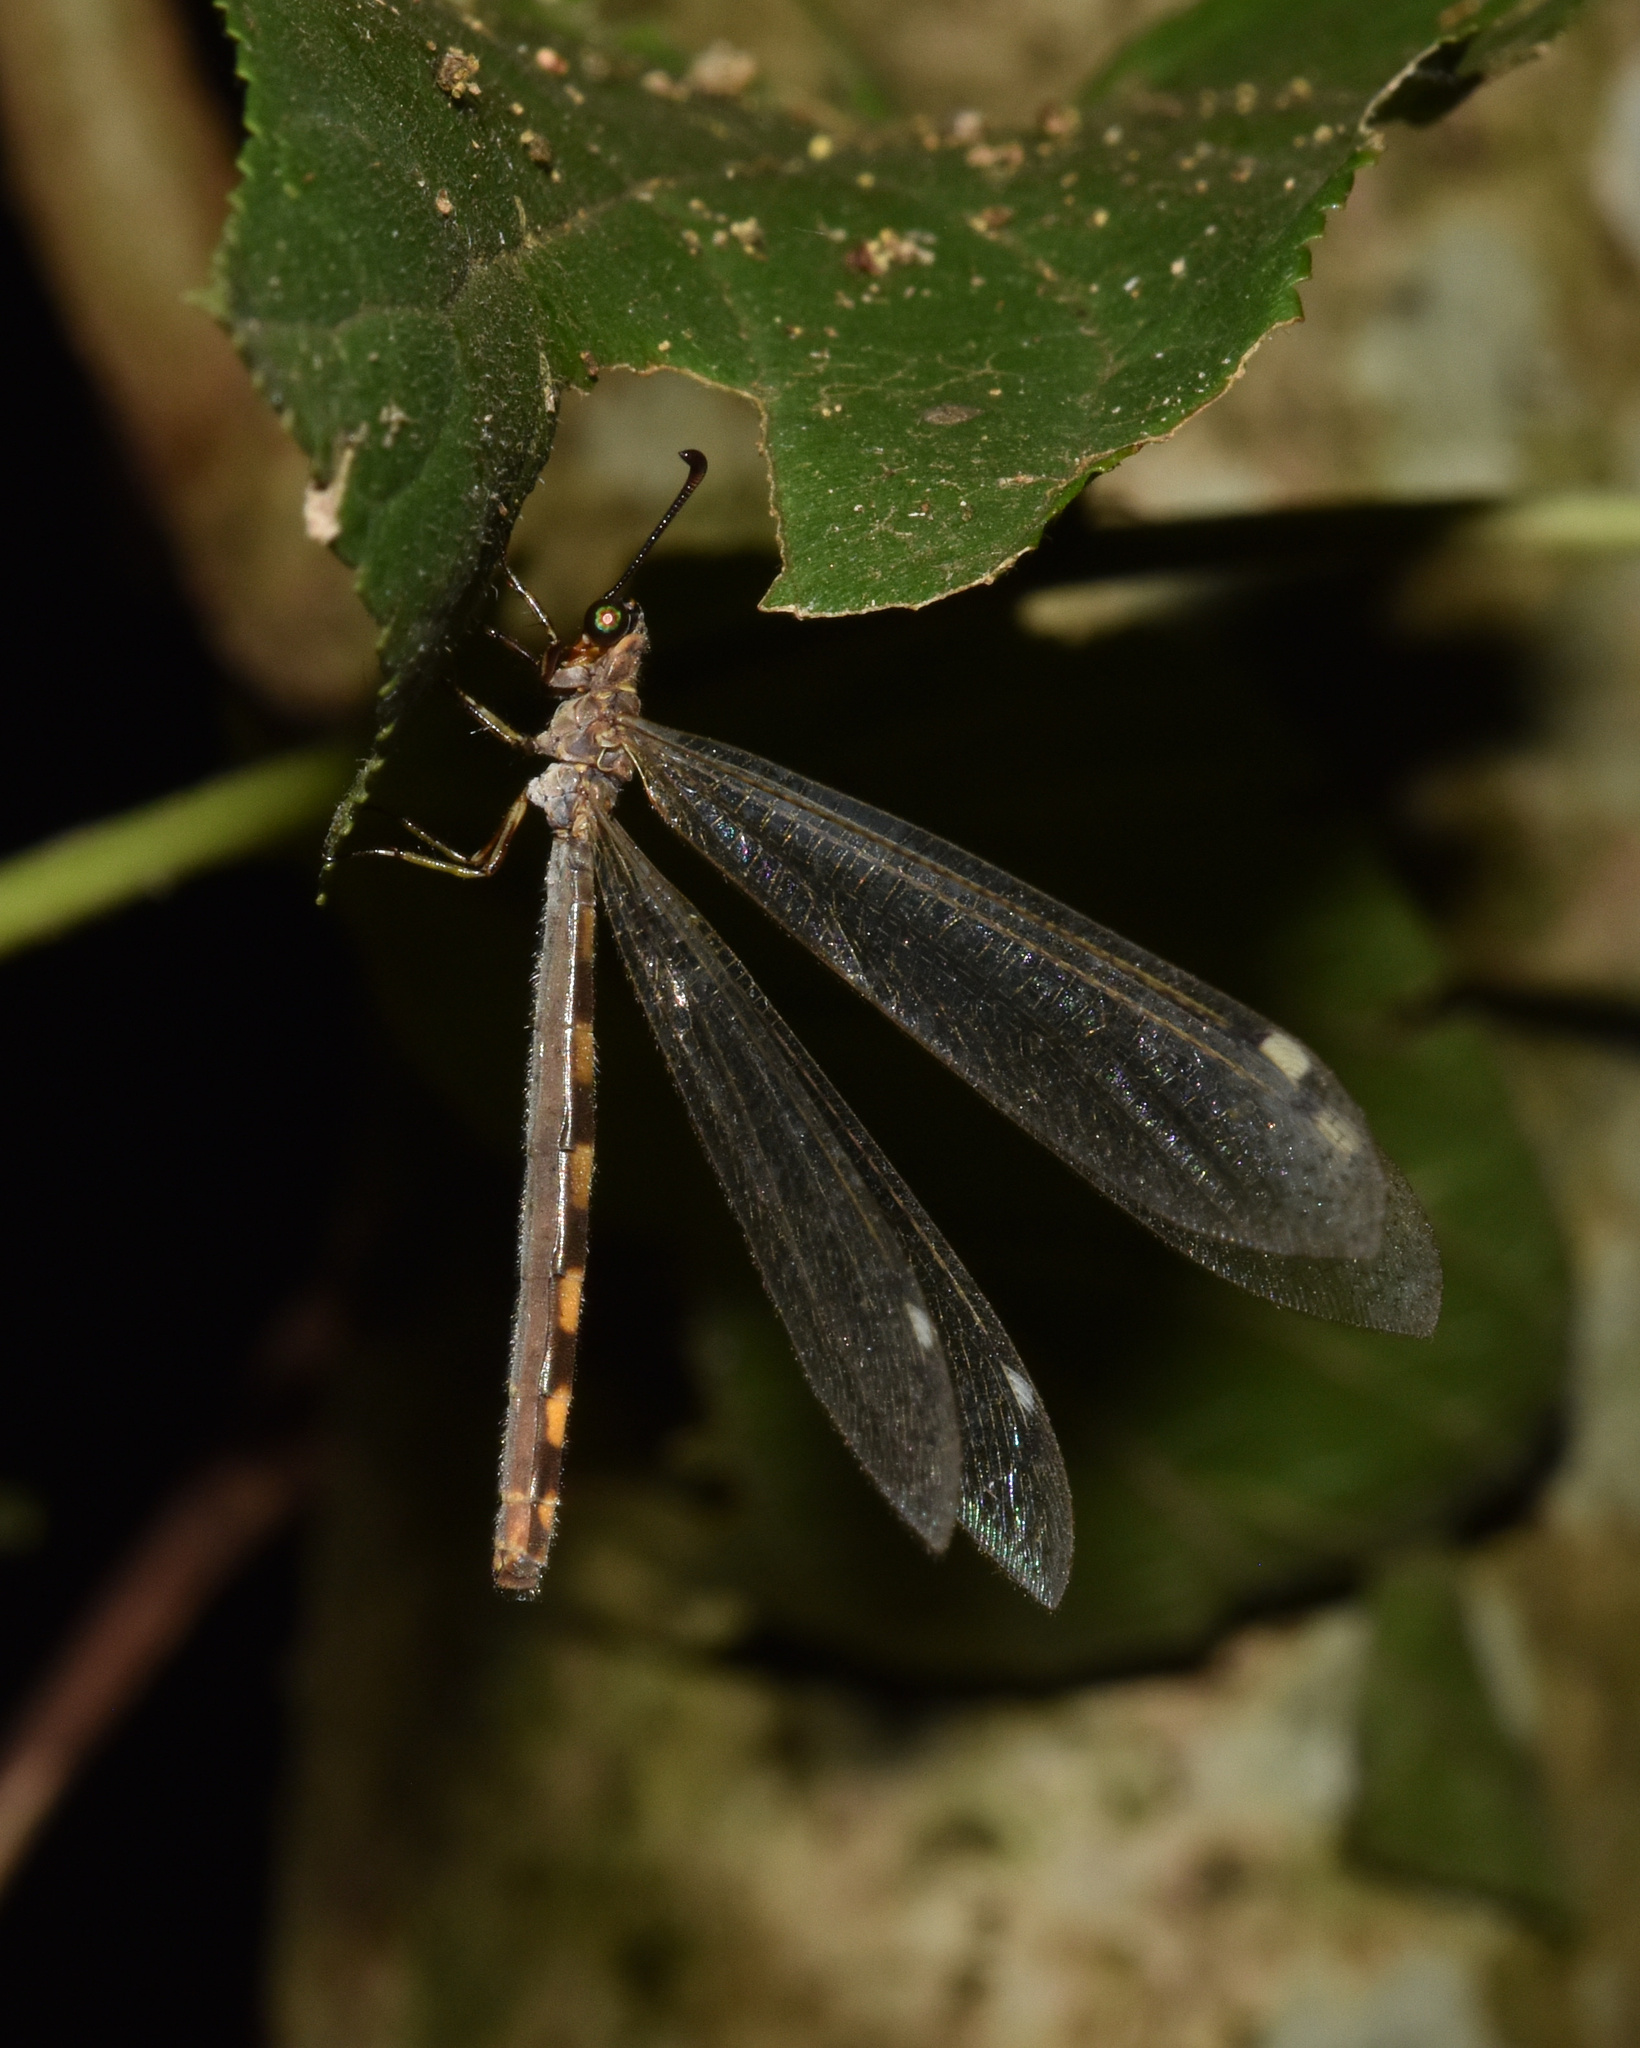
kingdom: Animalia
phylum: Arthropoda
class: Insecta
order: Neuroptera
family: Myrmeleontidae
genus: Myrmeleon
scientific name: Myrmeleon obscurus
